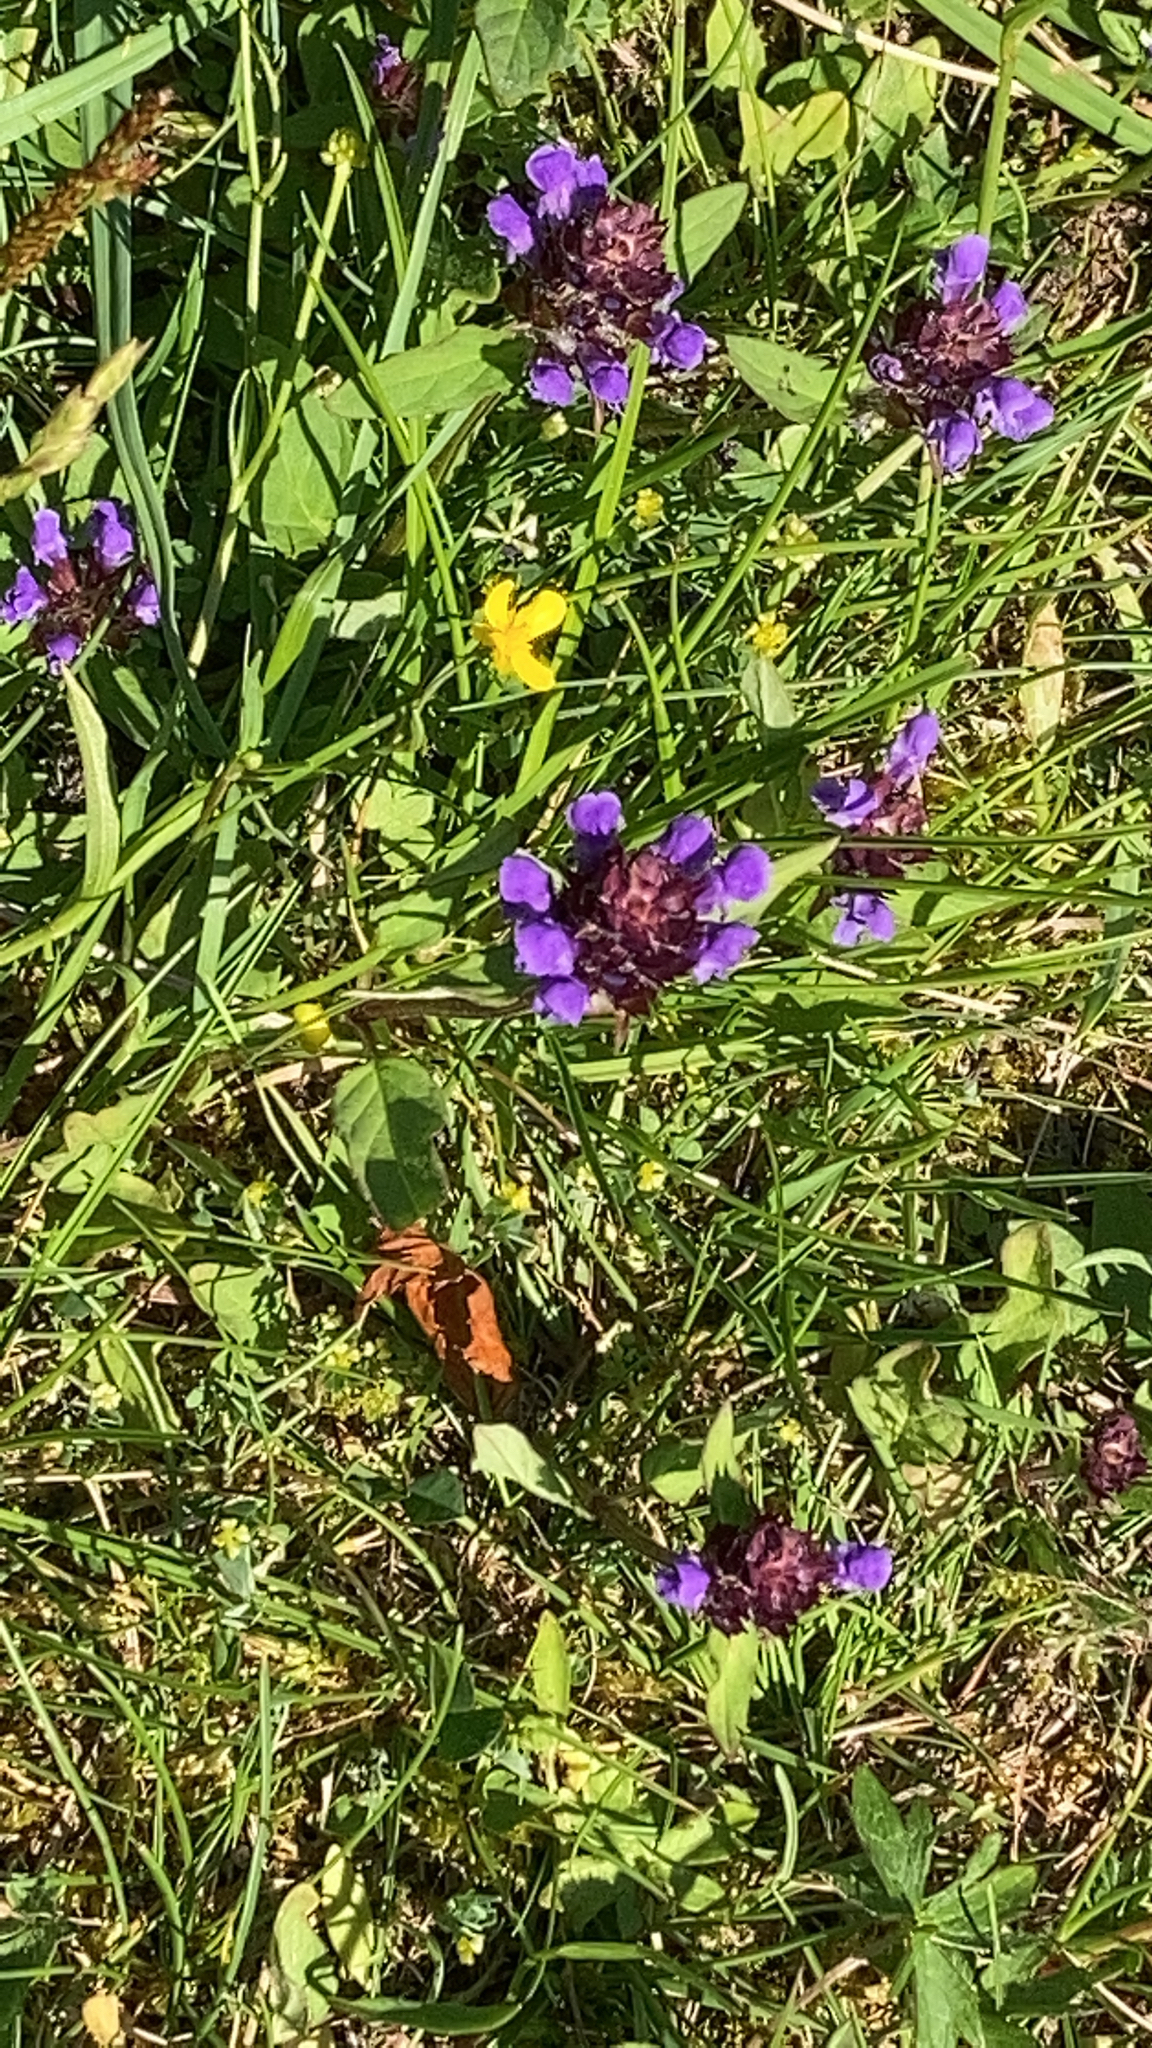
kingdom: Plantae
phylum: Tracheophyta
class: Magnoliopsida
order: Lamiales
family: Lamiaceae
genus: Prunella
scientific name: Prunella vulgaris
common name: Heal-all
